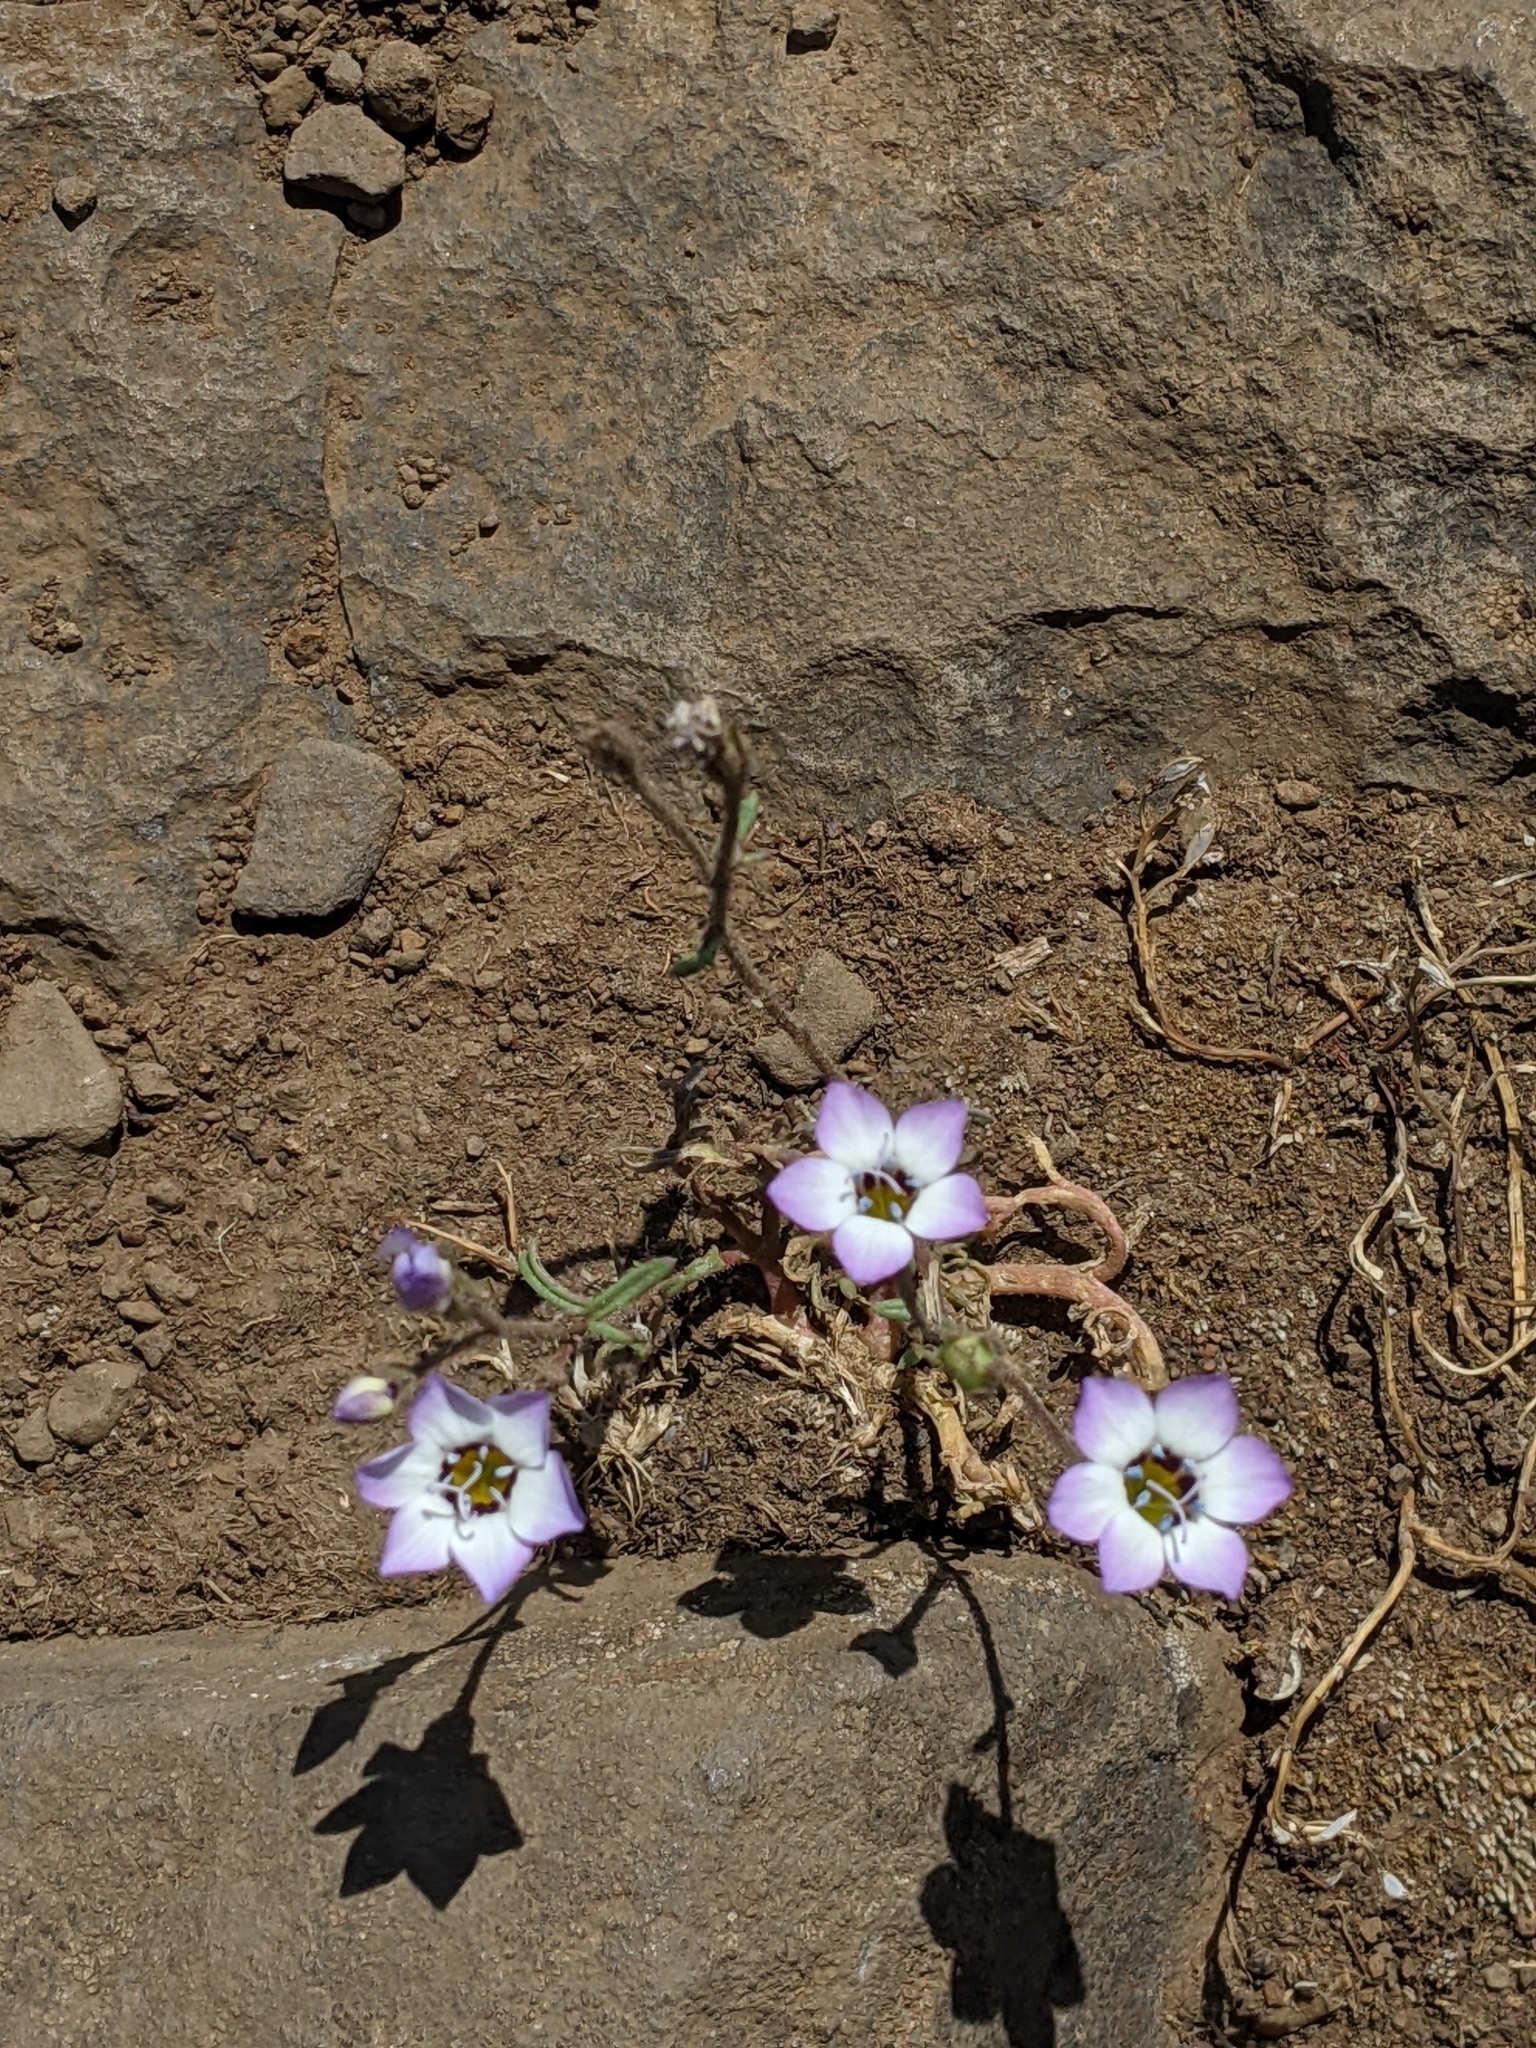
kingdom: Plantae
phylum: Tracheophyta
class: Magnoliopsida
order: Ericales
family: Polemoniaceae
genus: Gilia
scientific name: Gilia tricolor
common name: Bird's-eyes
